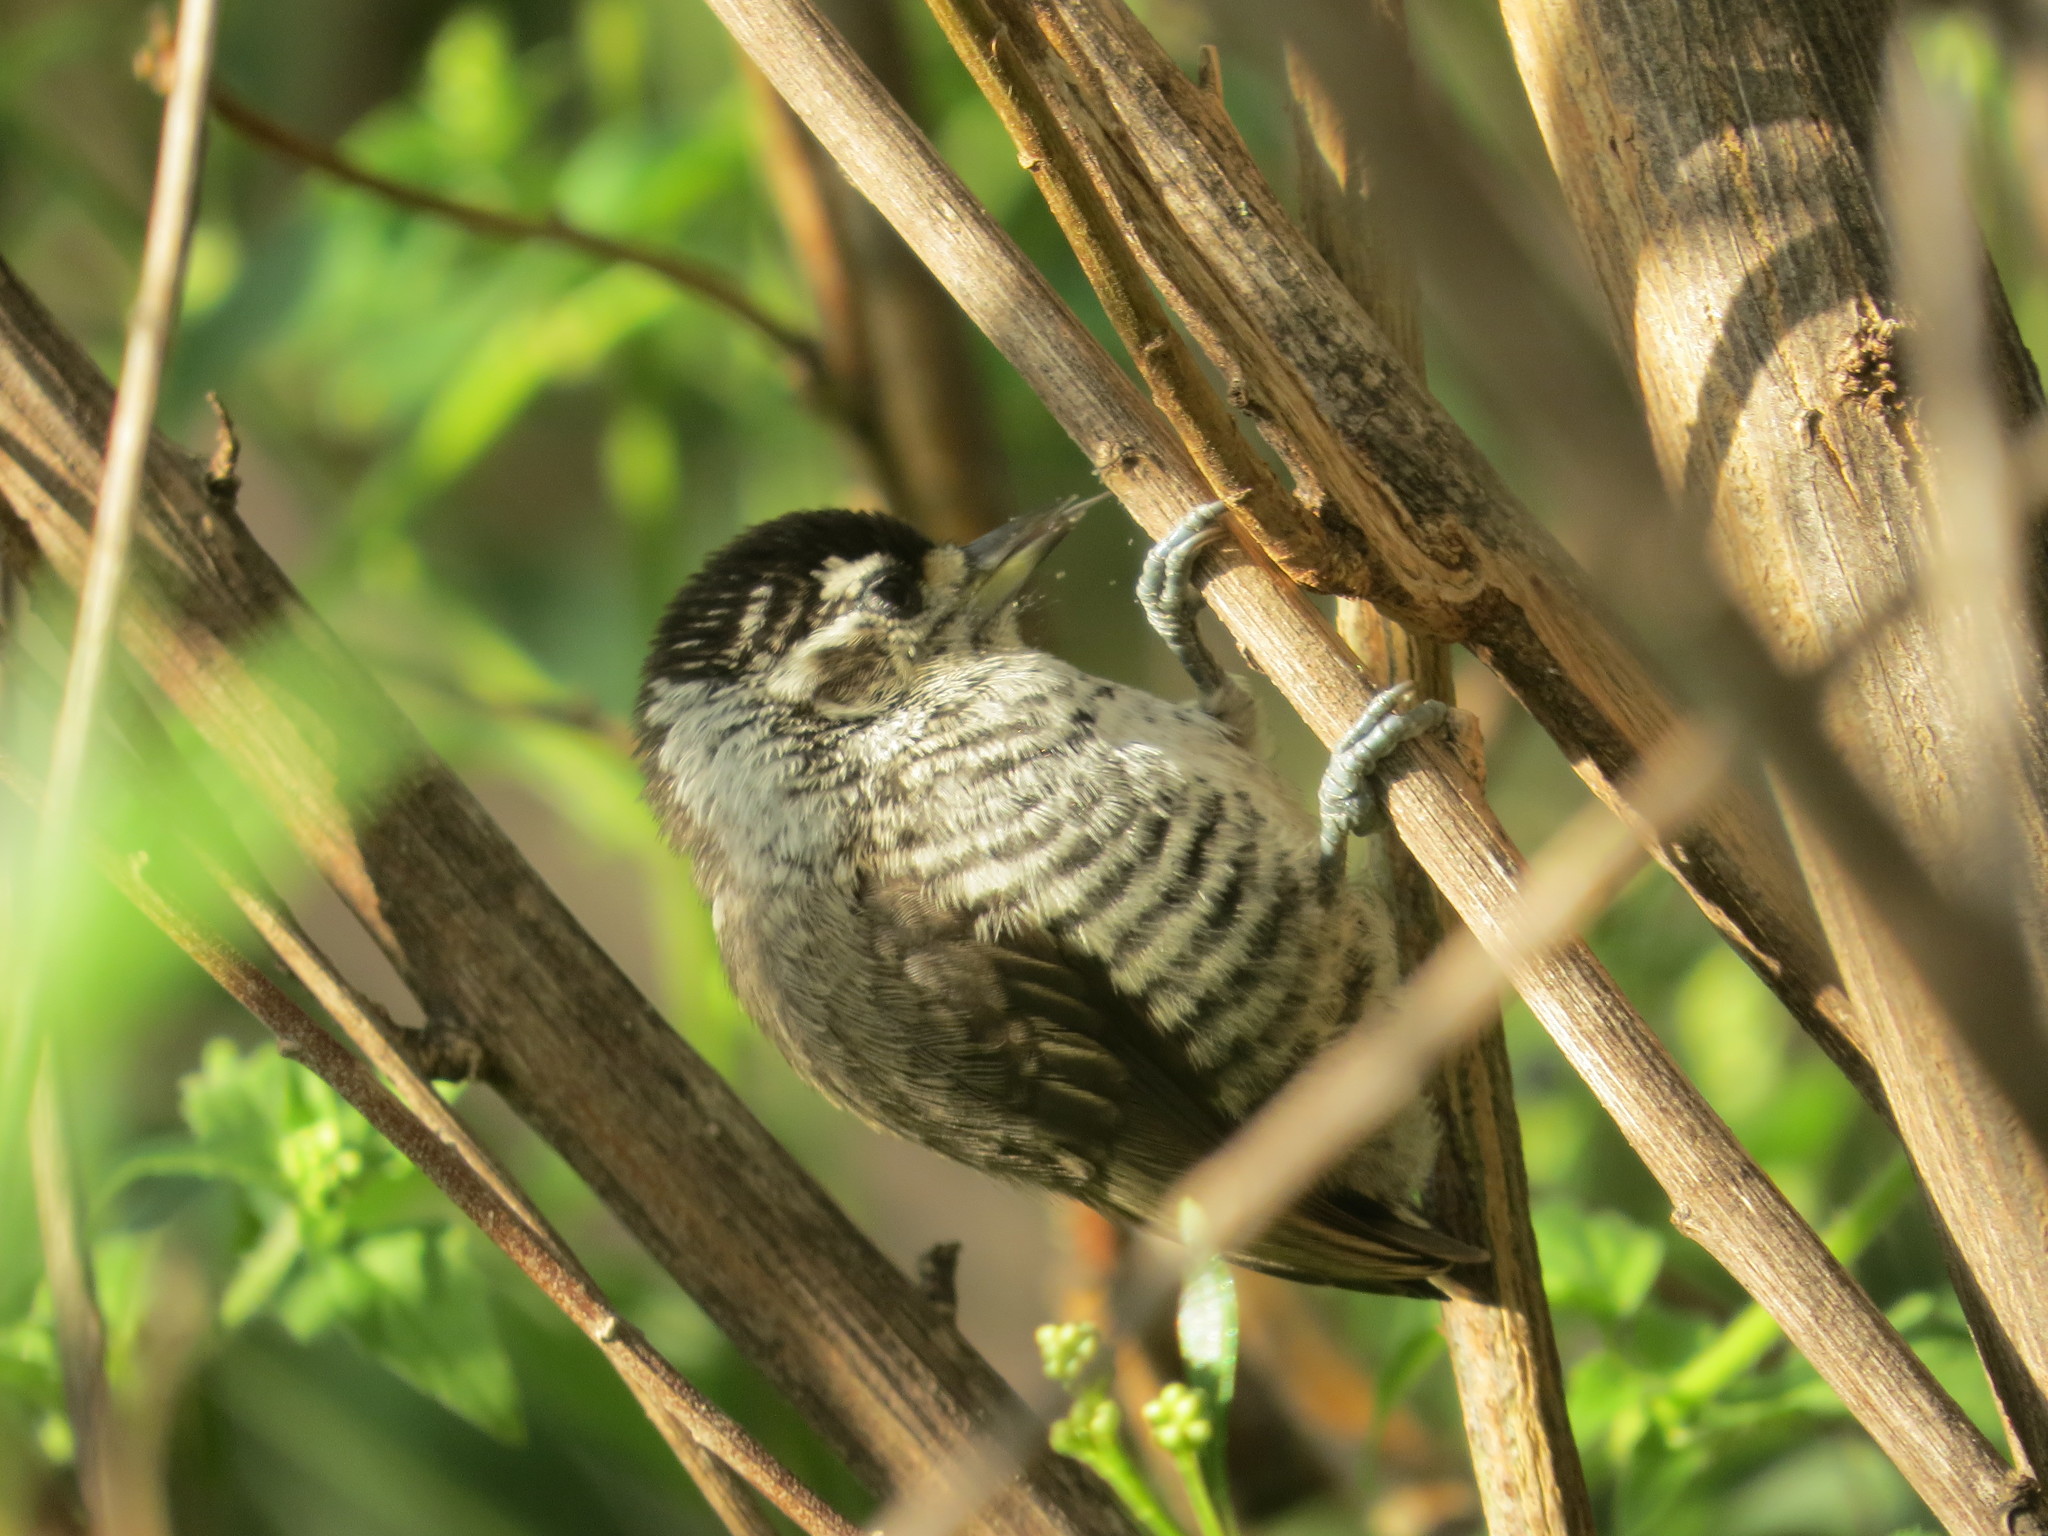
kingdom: Animalia
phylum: Chordata
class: Aves
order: Piciformes
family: Picidae
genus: Picumnus
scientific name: Picumnus cirratus
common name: White-barred piculet
